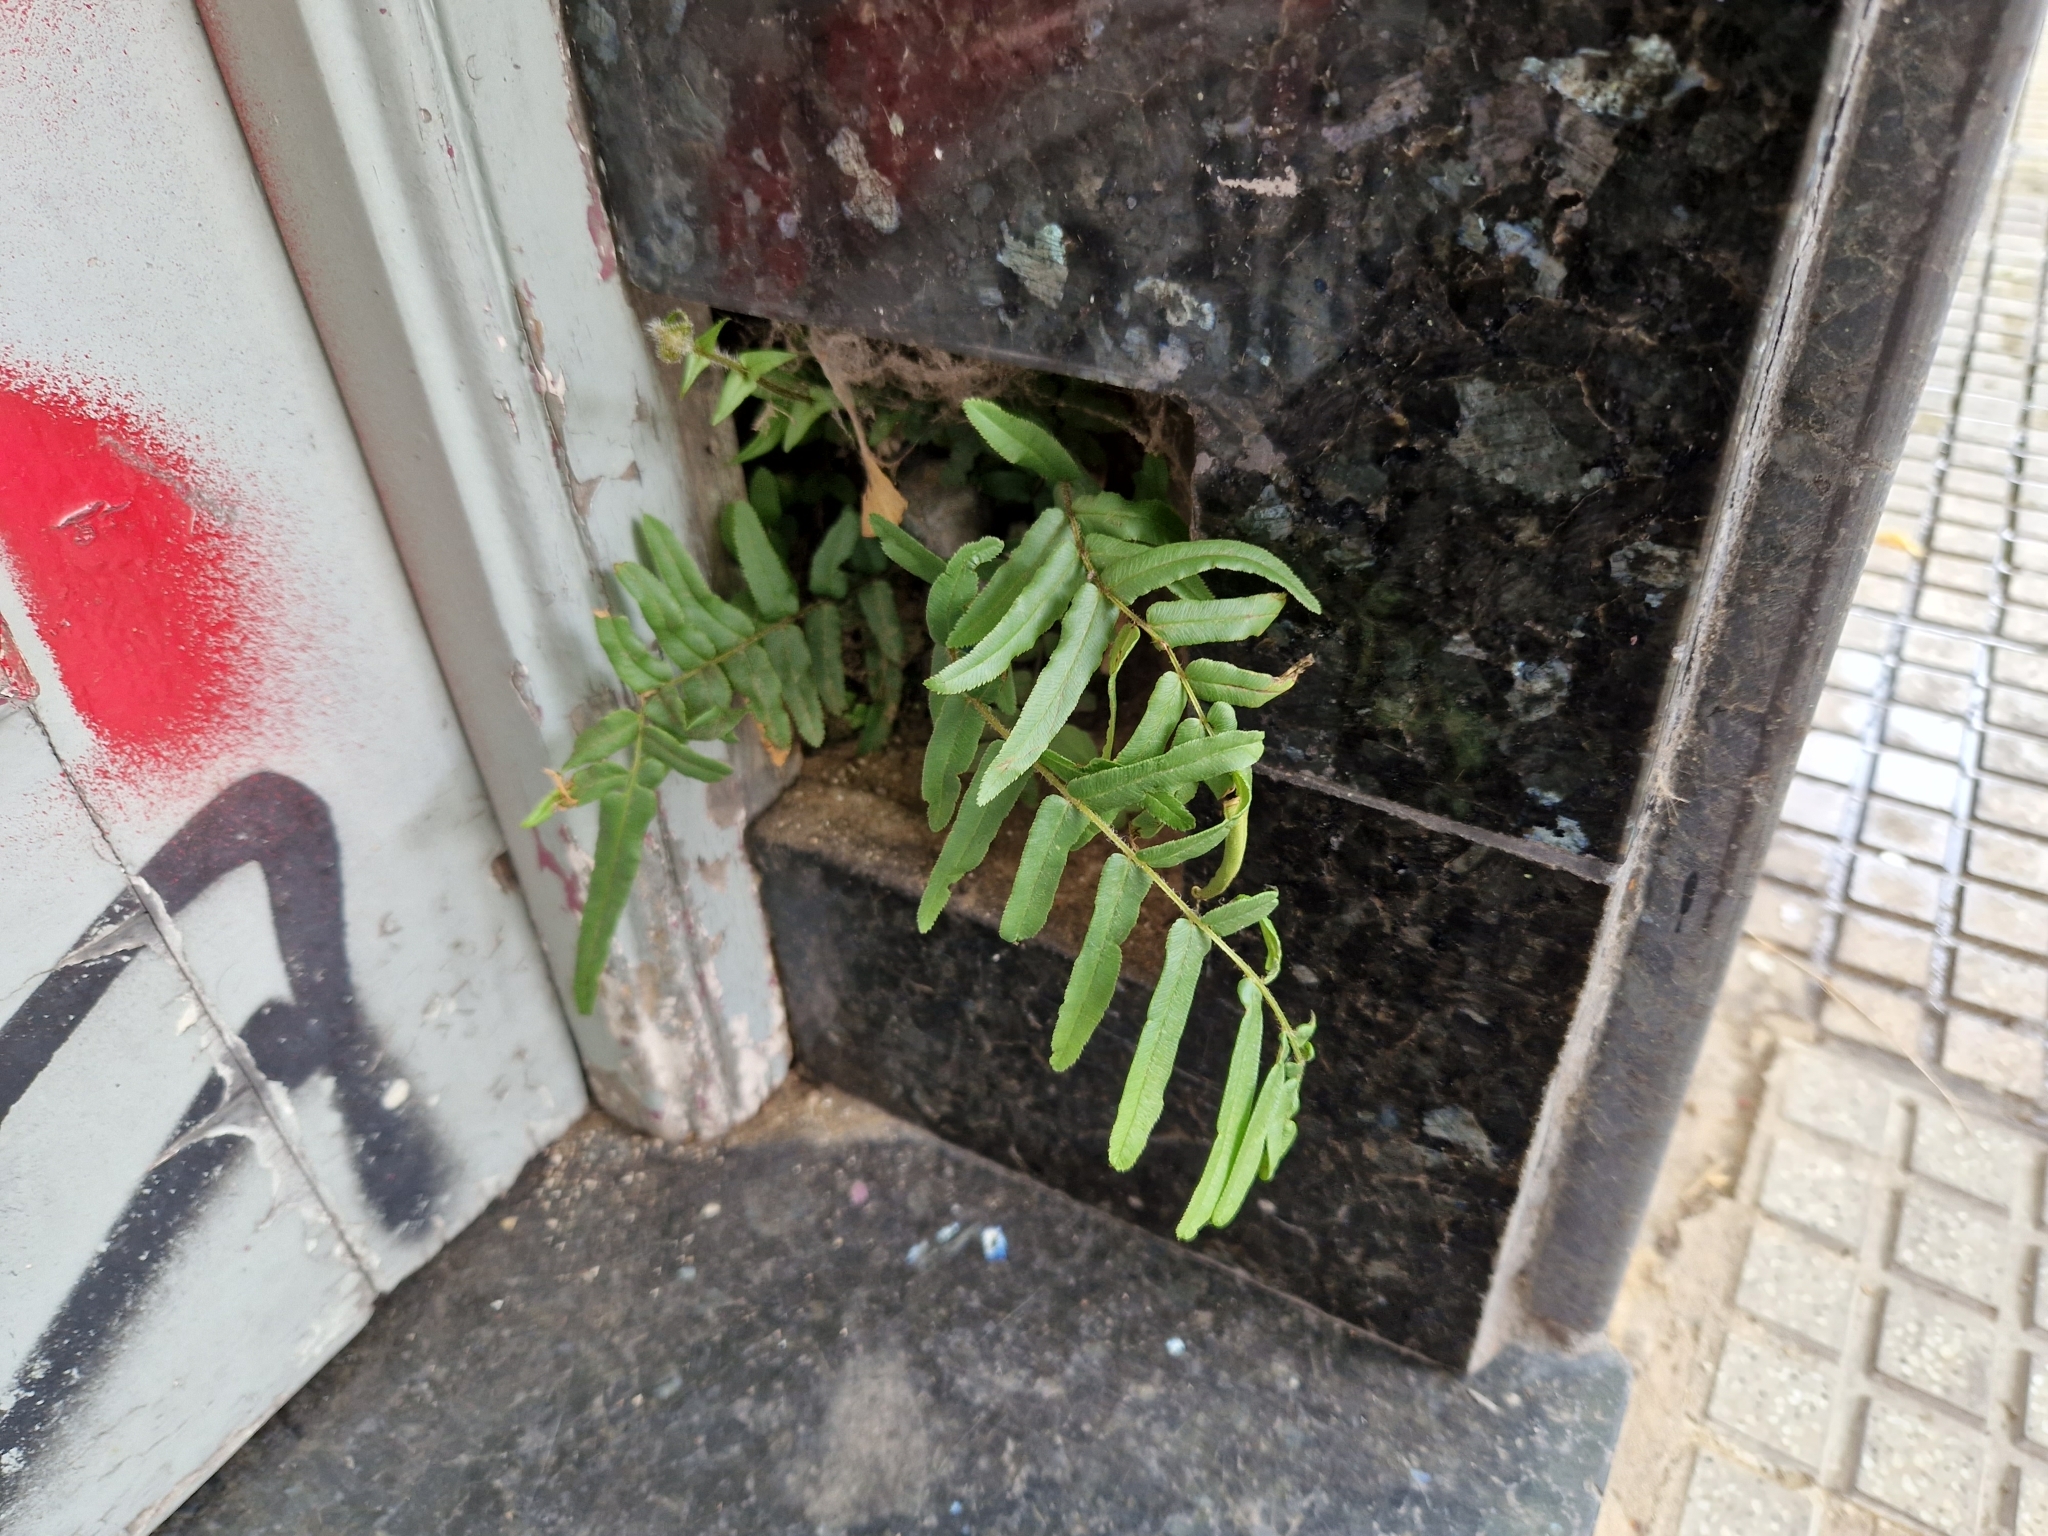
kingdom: Plantae
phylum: Tracheophyta
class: Polypodiopsida
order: Polypodiales
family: Pteridaceae
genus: Pteris
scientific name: Pteris vittata
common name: Ladder brake
